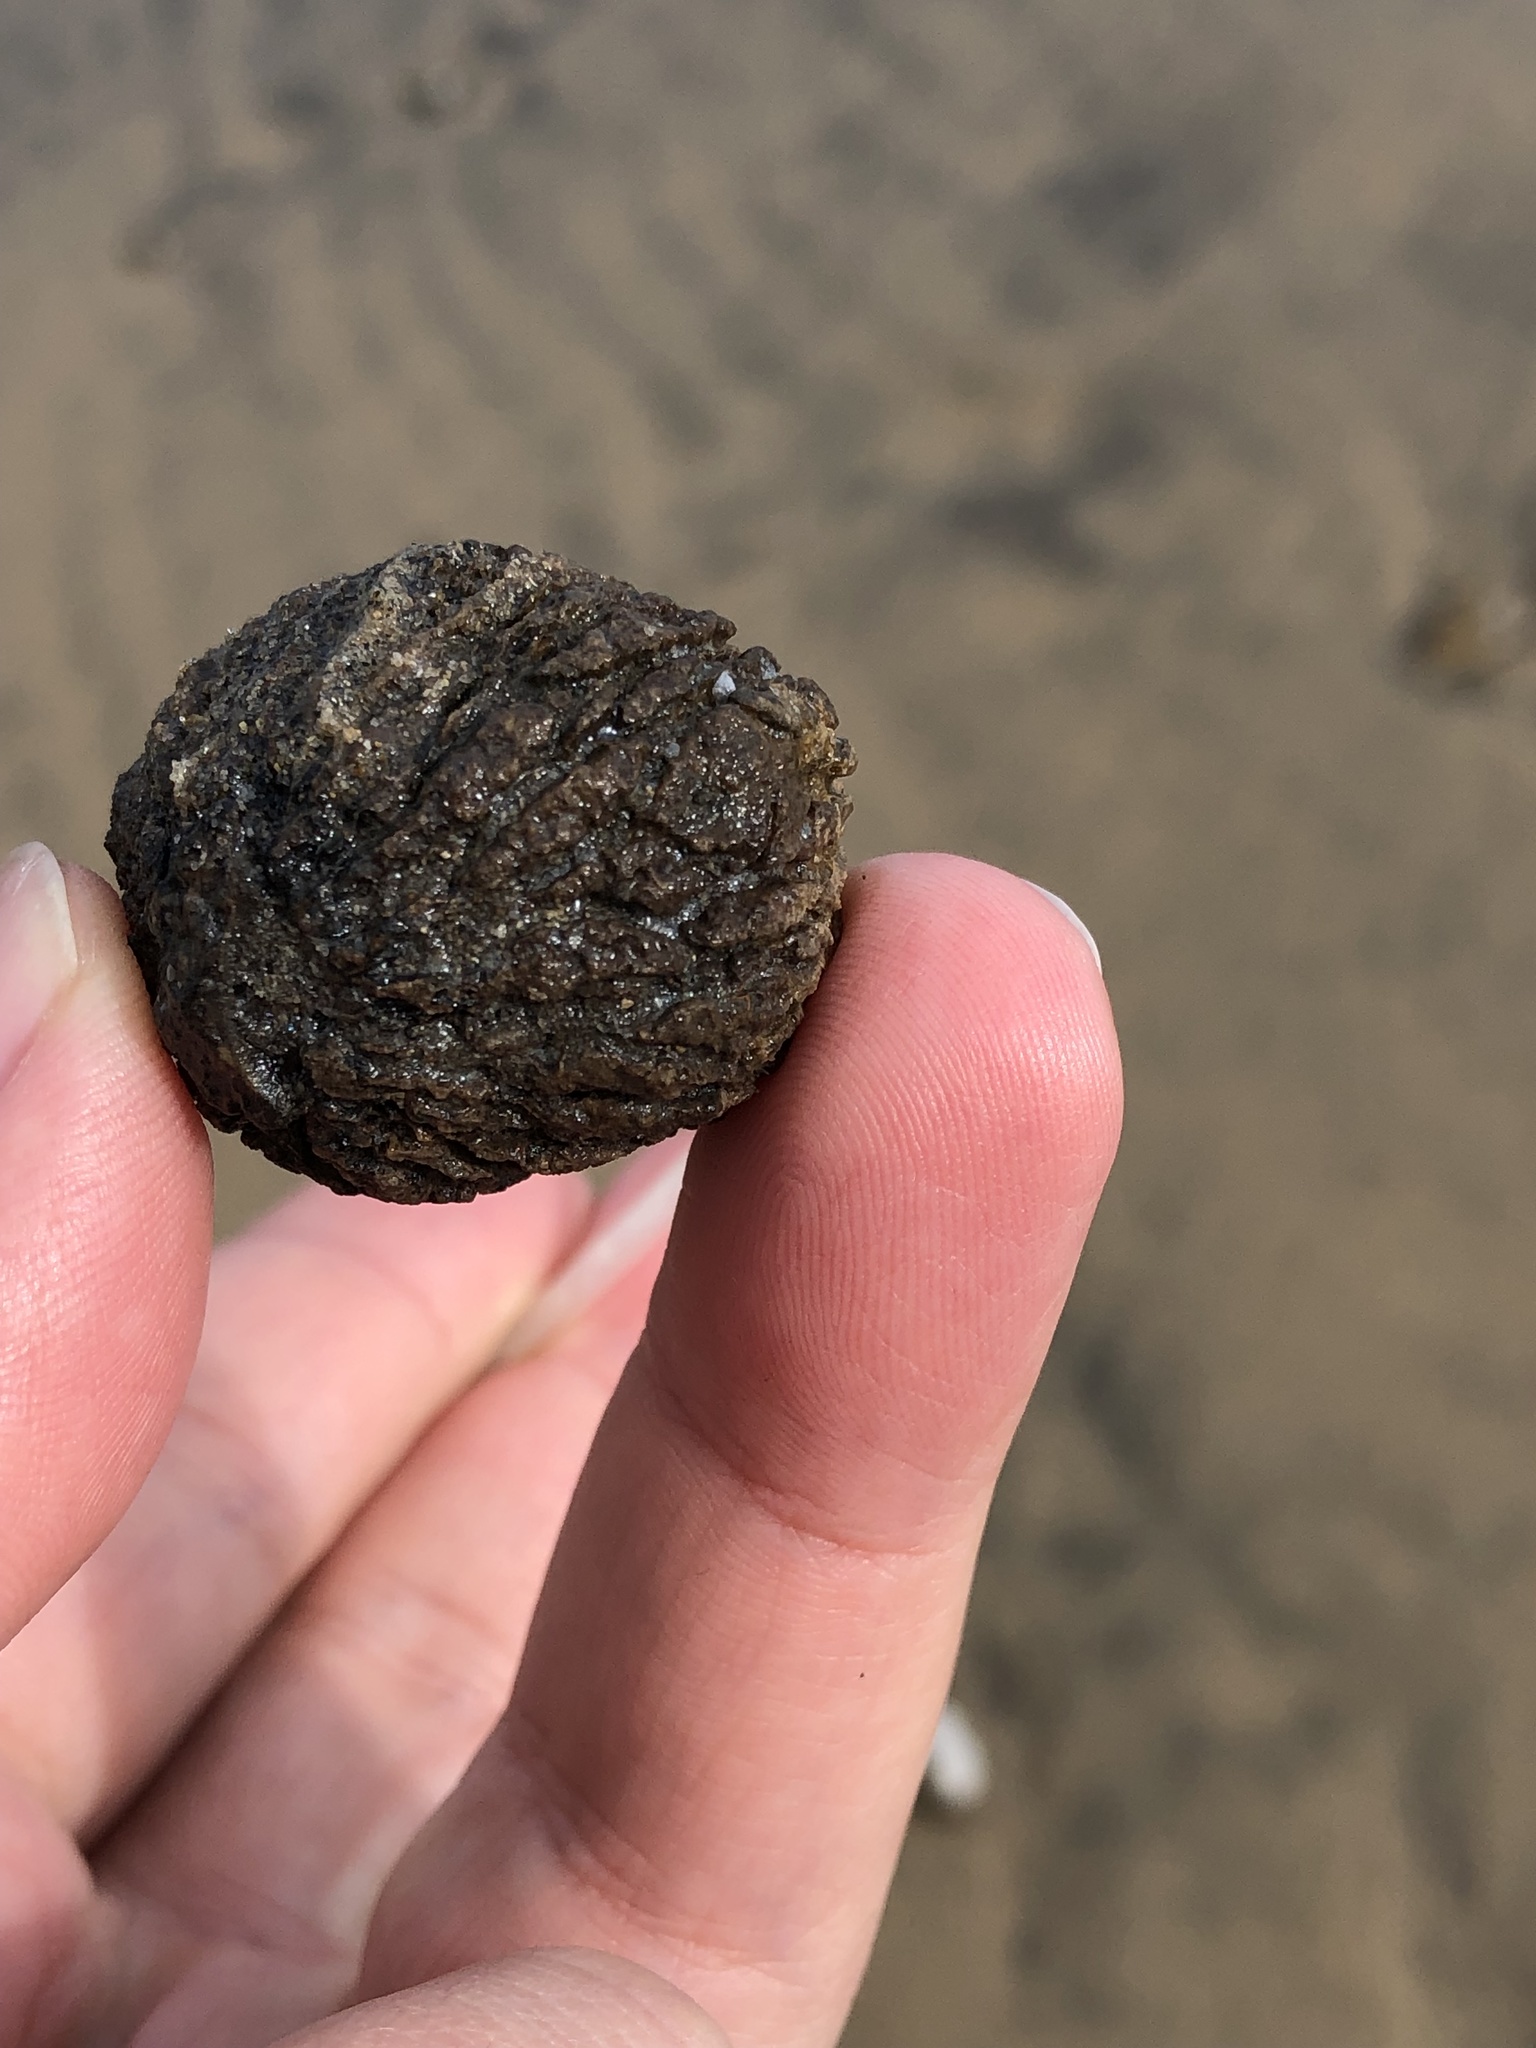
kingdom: Plantae
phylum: Tracheophyta
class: Magnoliopsida
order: Fagales
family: Juglandaceae
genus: Juglans
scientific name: Juglans nigra
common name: Black walnut
